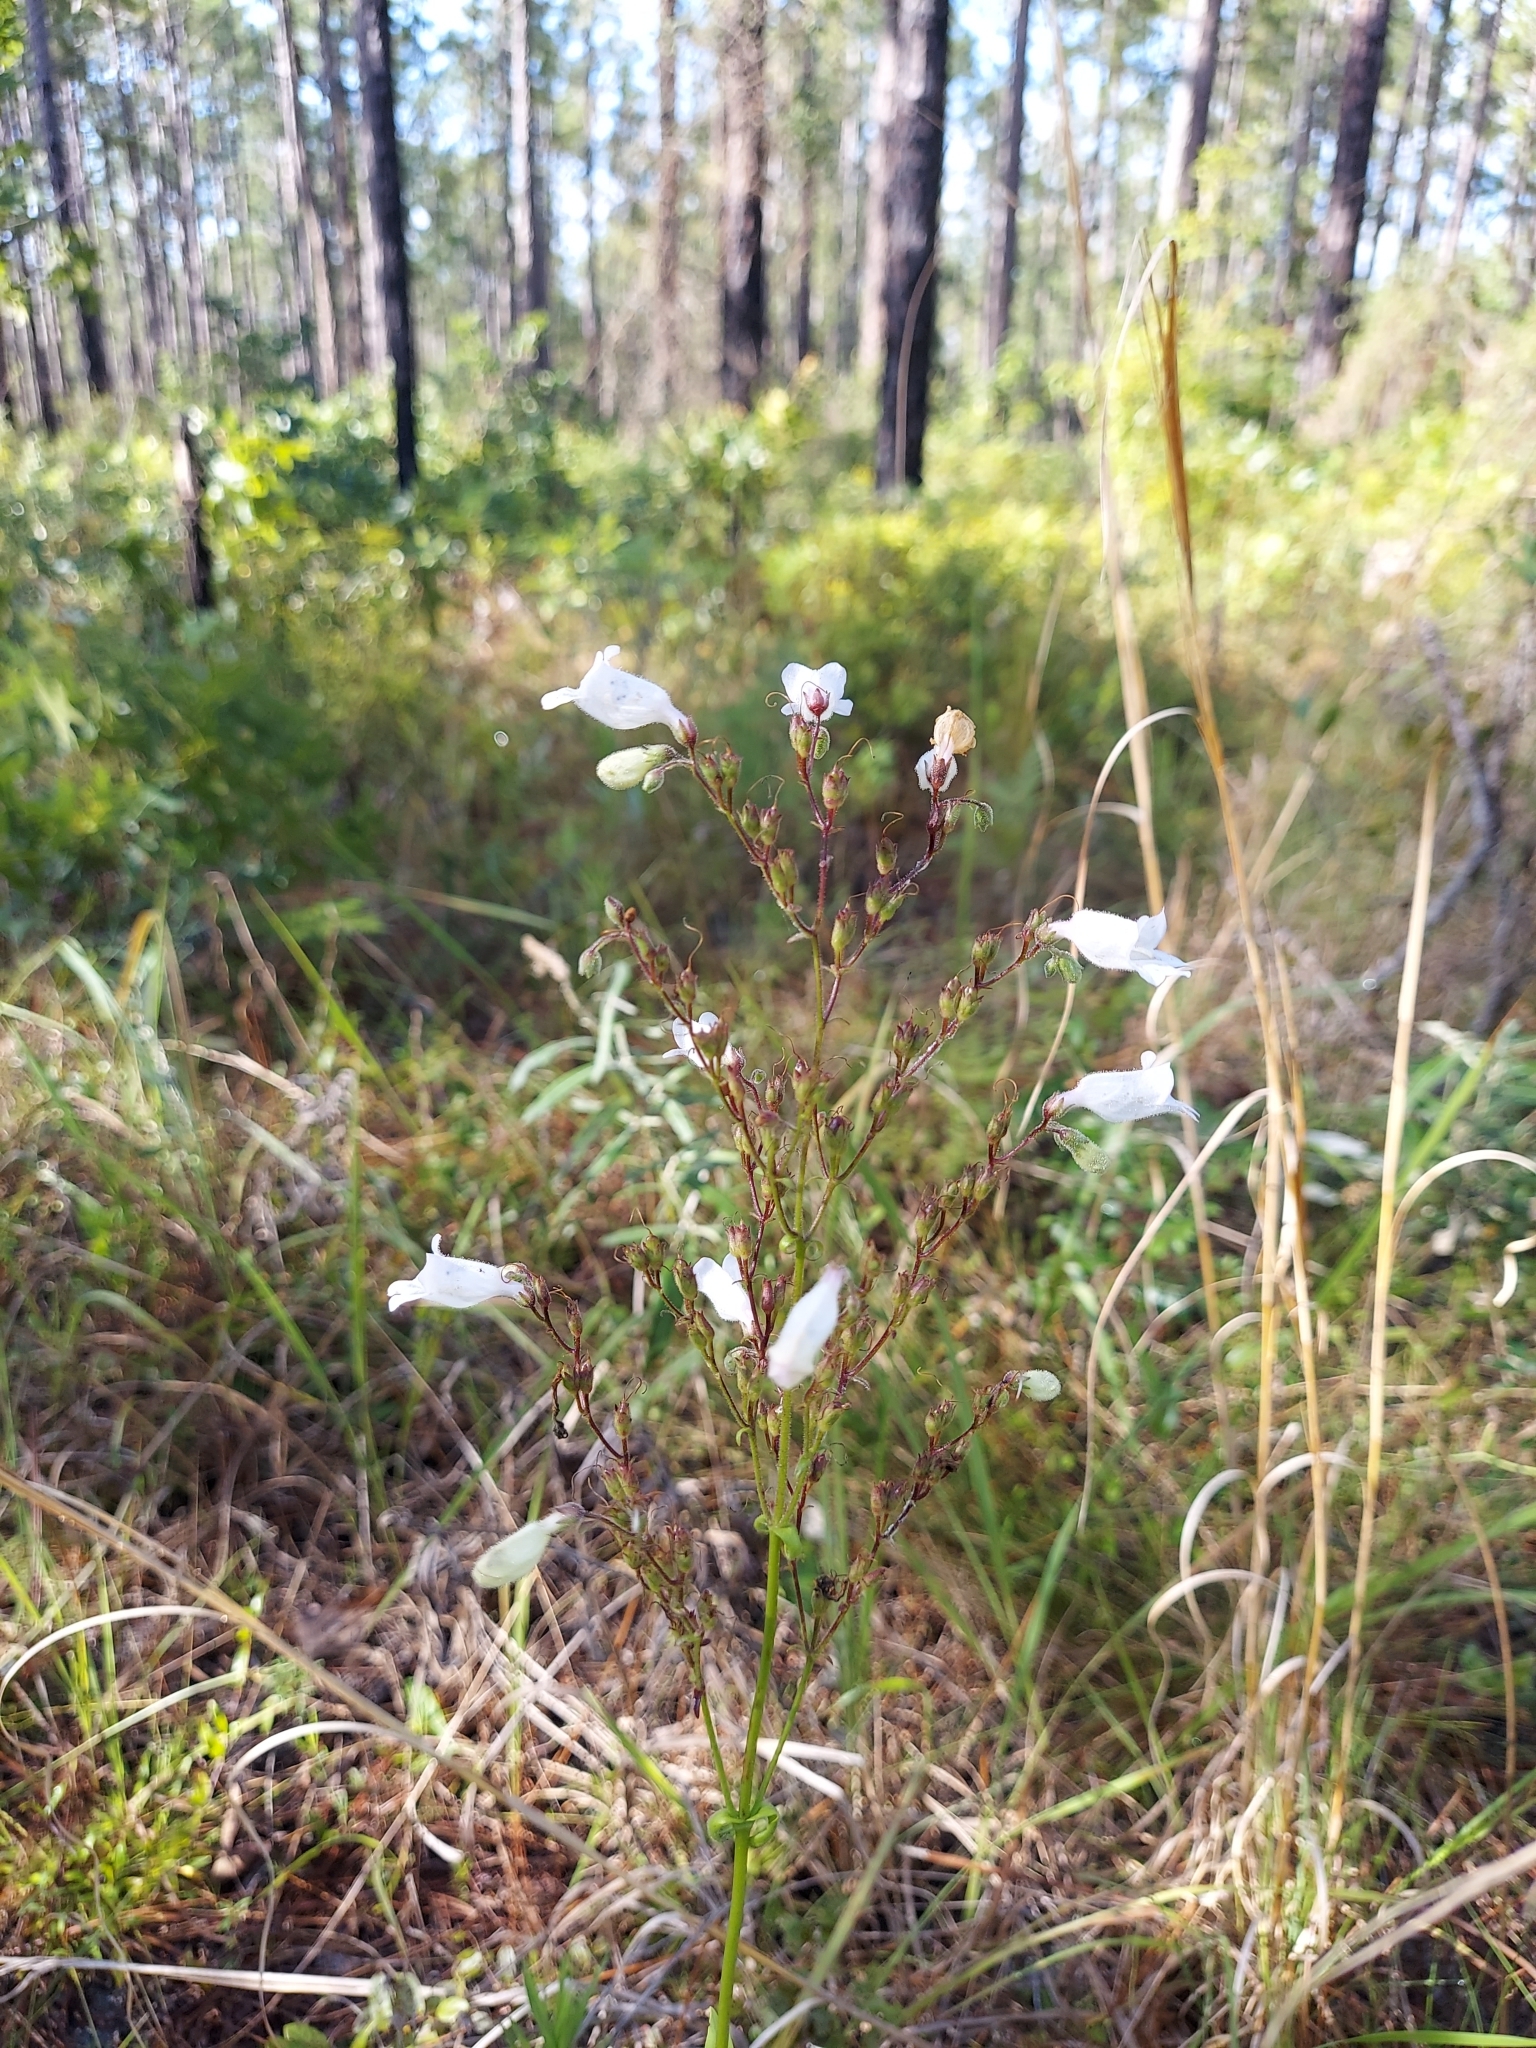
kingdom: Plantae
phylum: Tracheophyta
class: Magnoliopsida
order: Lamiales
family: Plantaginaceae
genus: Penstemon
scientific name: Penstemon multiflorus
